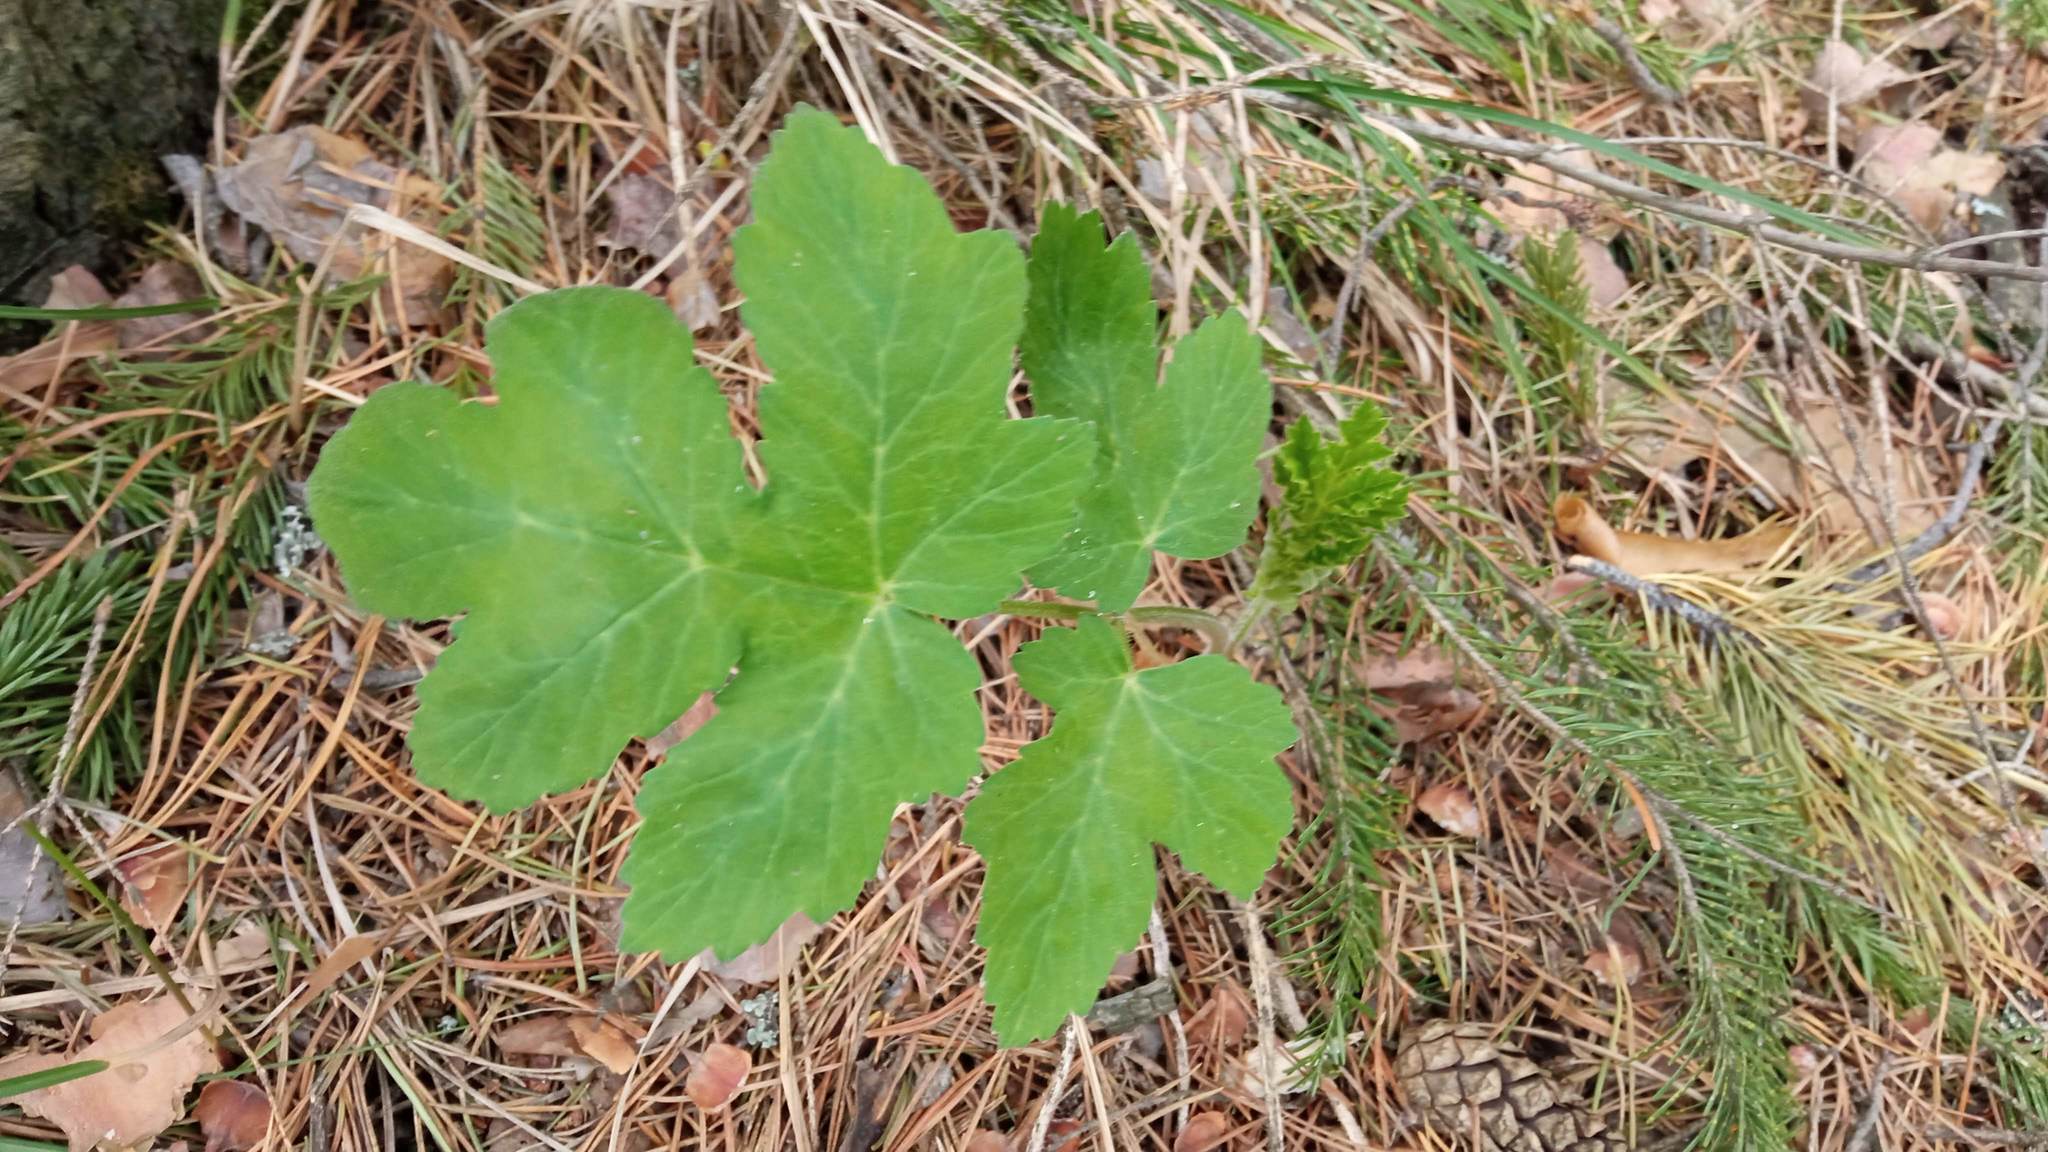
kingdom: Plantae
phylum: Tracheophyta
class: Magnoliopsida
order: Apiales
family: Apiaceae
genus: Heracleum
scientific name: Heracleum sphondylium
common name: Hogweed
